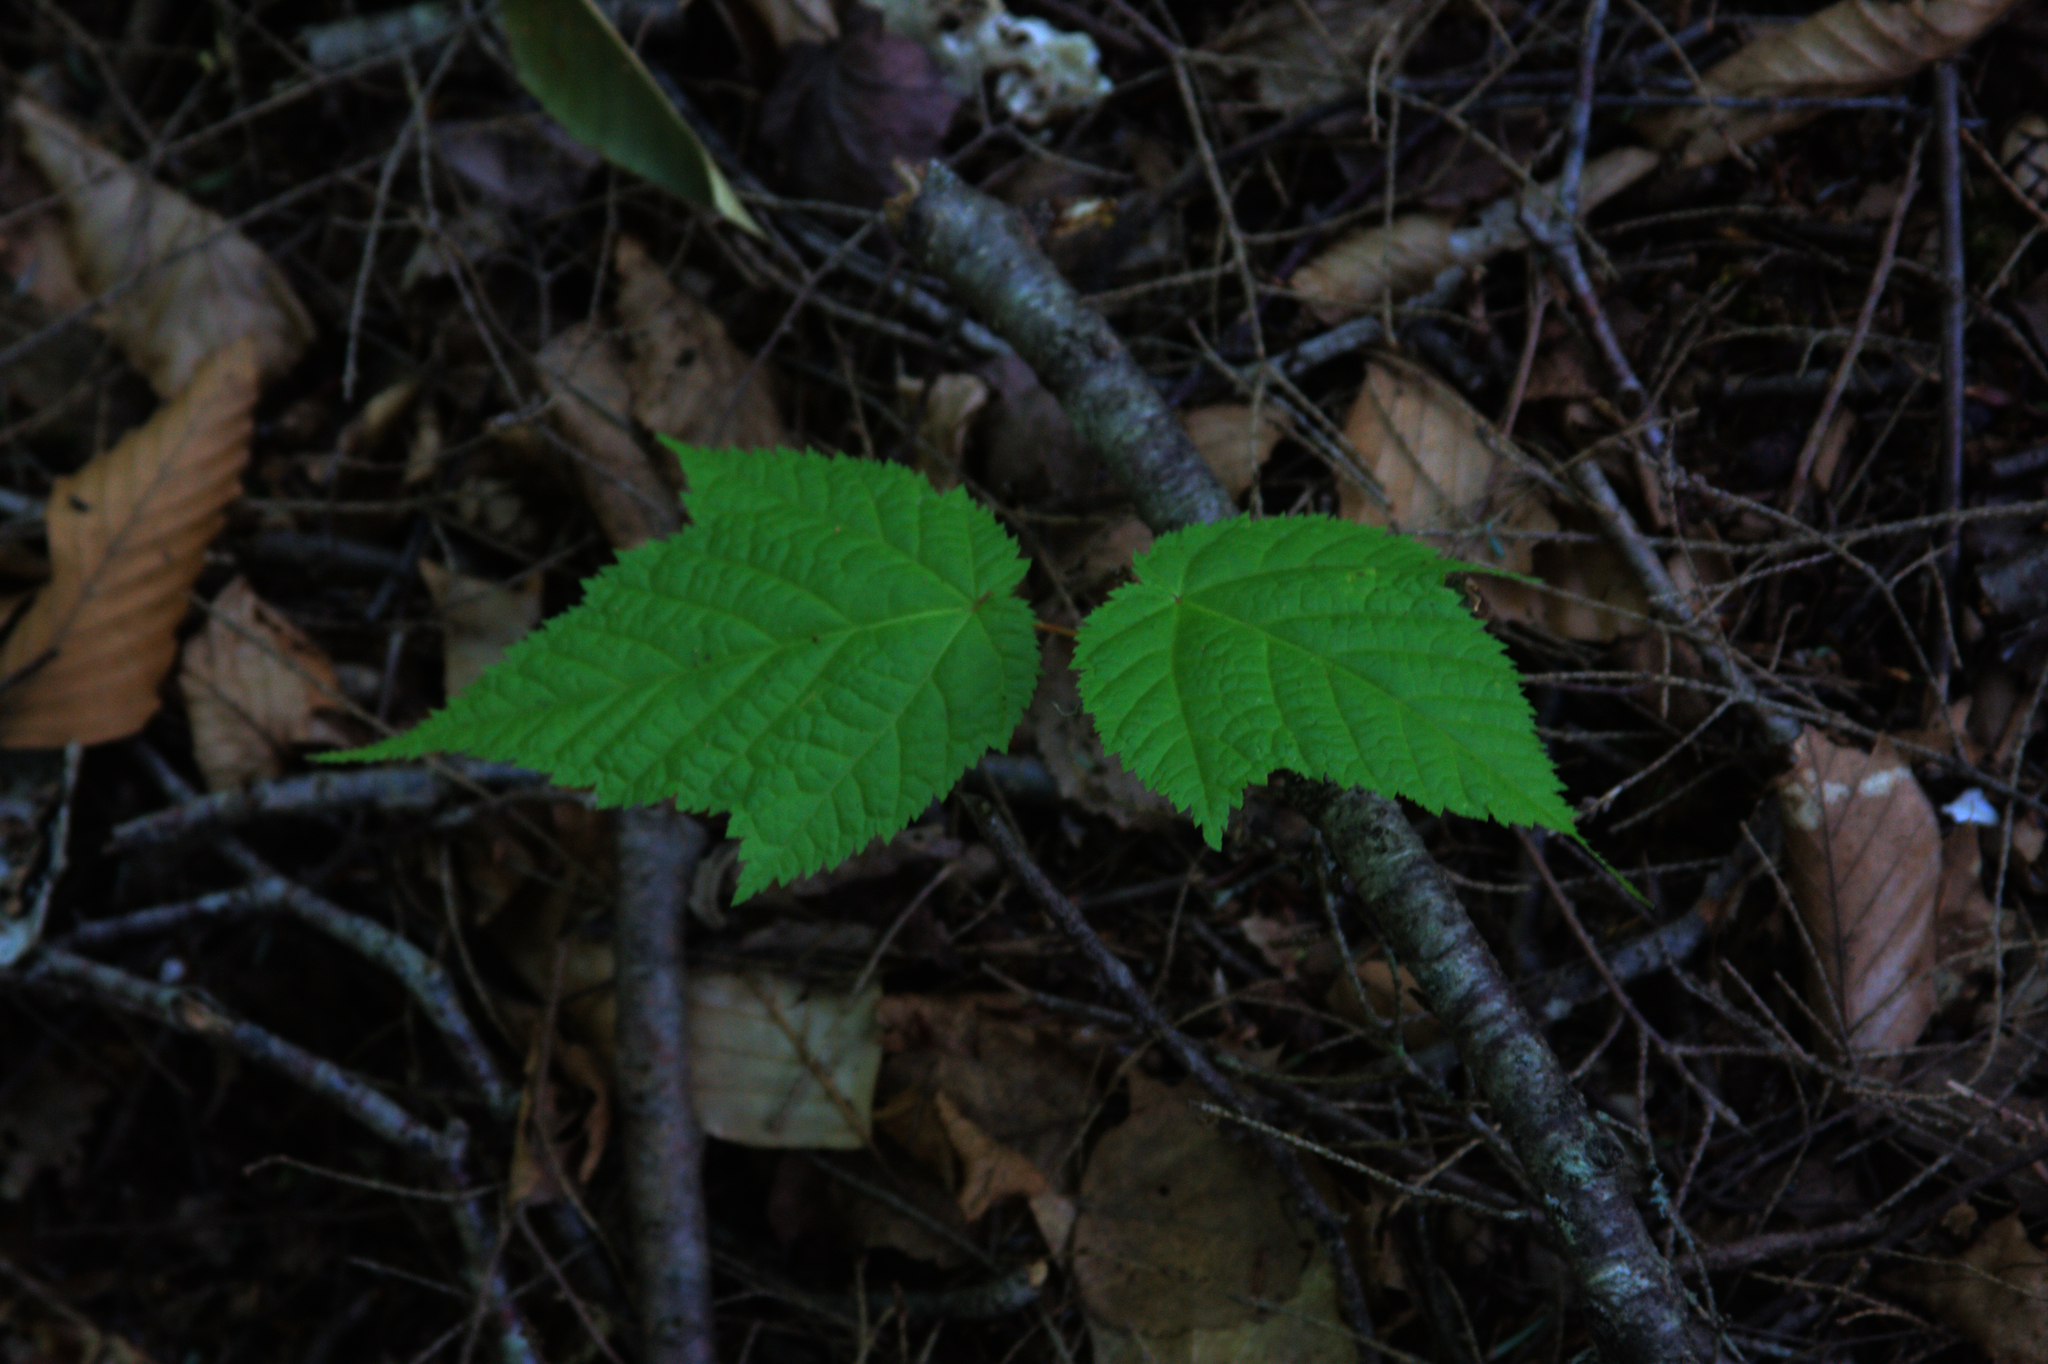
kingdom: Plantae
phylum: Tracheophyta
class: Magnoliopsida
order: Sapindales
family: Sapindaceae
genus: Acer
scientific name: Acer pensylvanicum
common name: Moosewood
